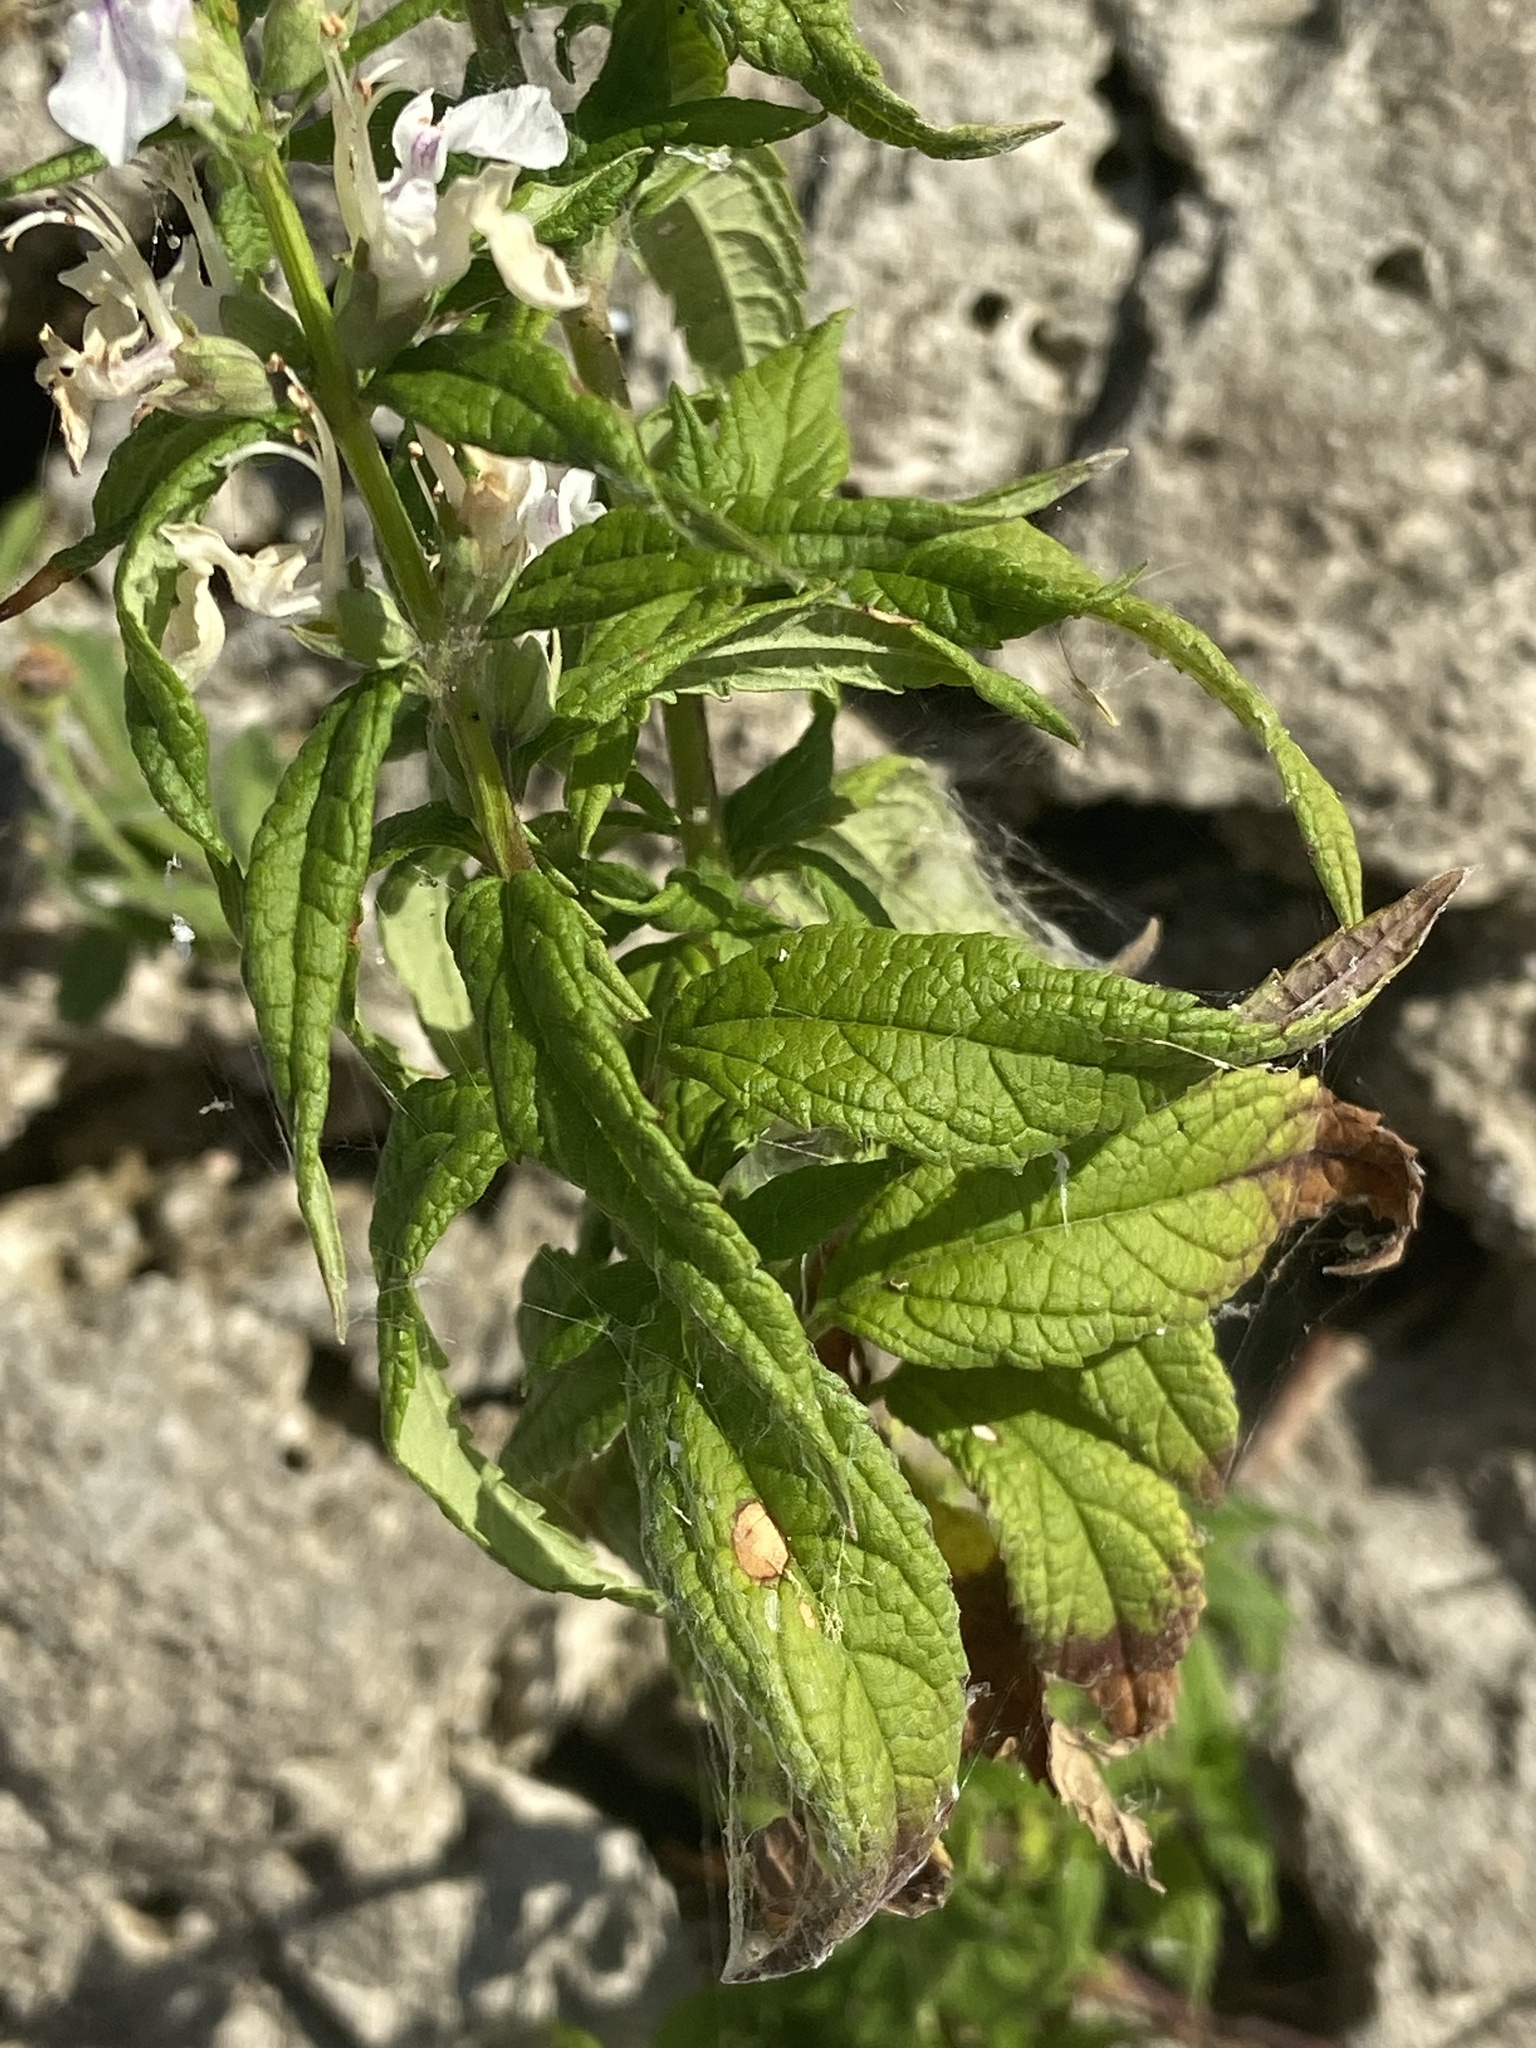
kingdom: Plantae
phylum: Tracheophyta
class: Magnoliopsida
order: Lamiales
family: Lamiaceae
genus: Teucrium
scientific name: Teucrium canadense
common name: American germander
